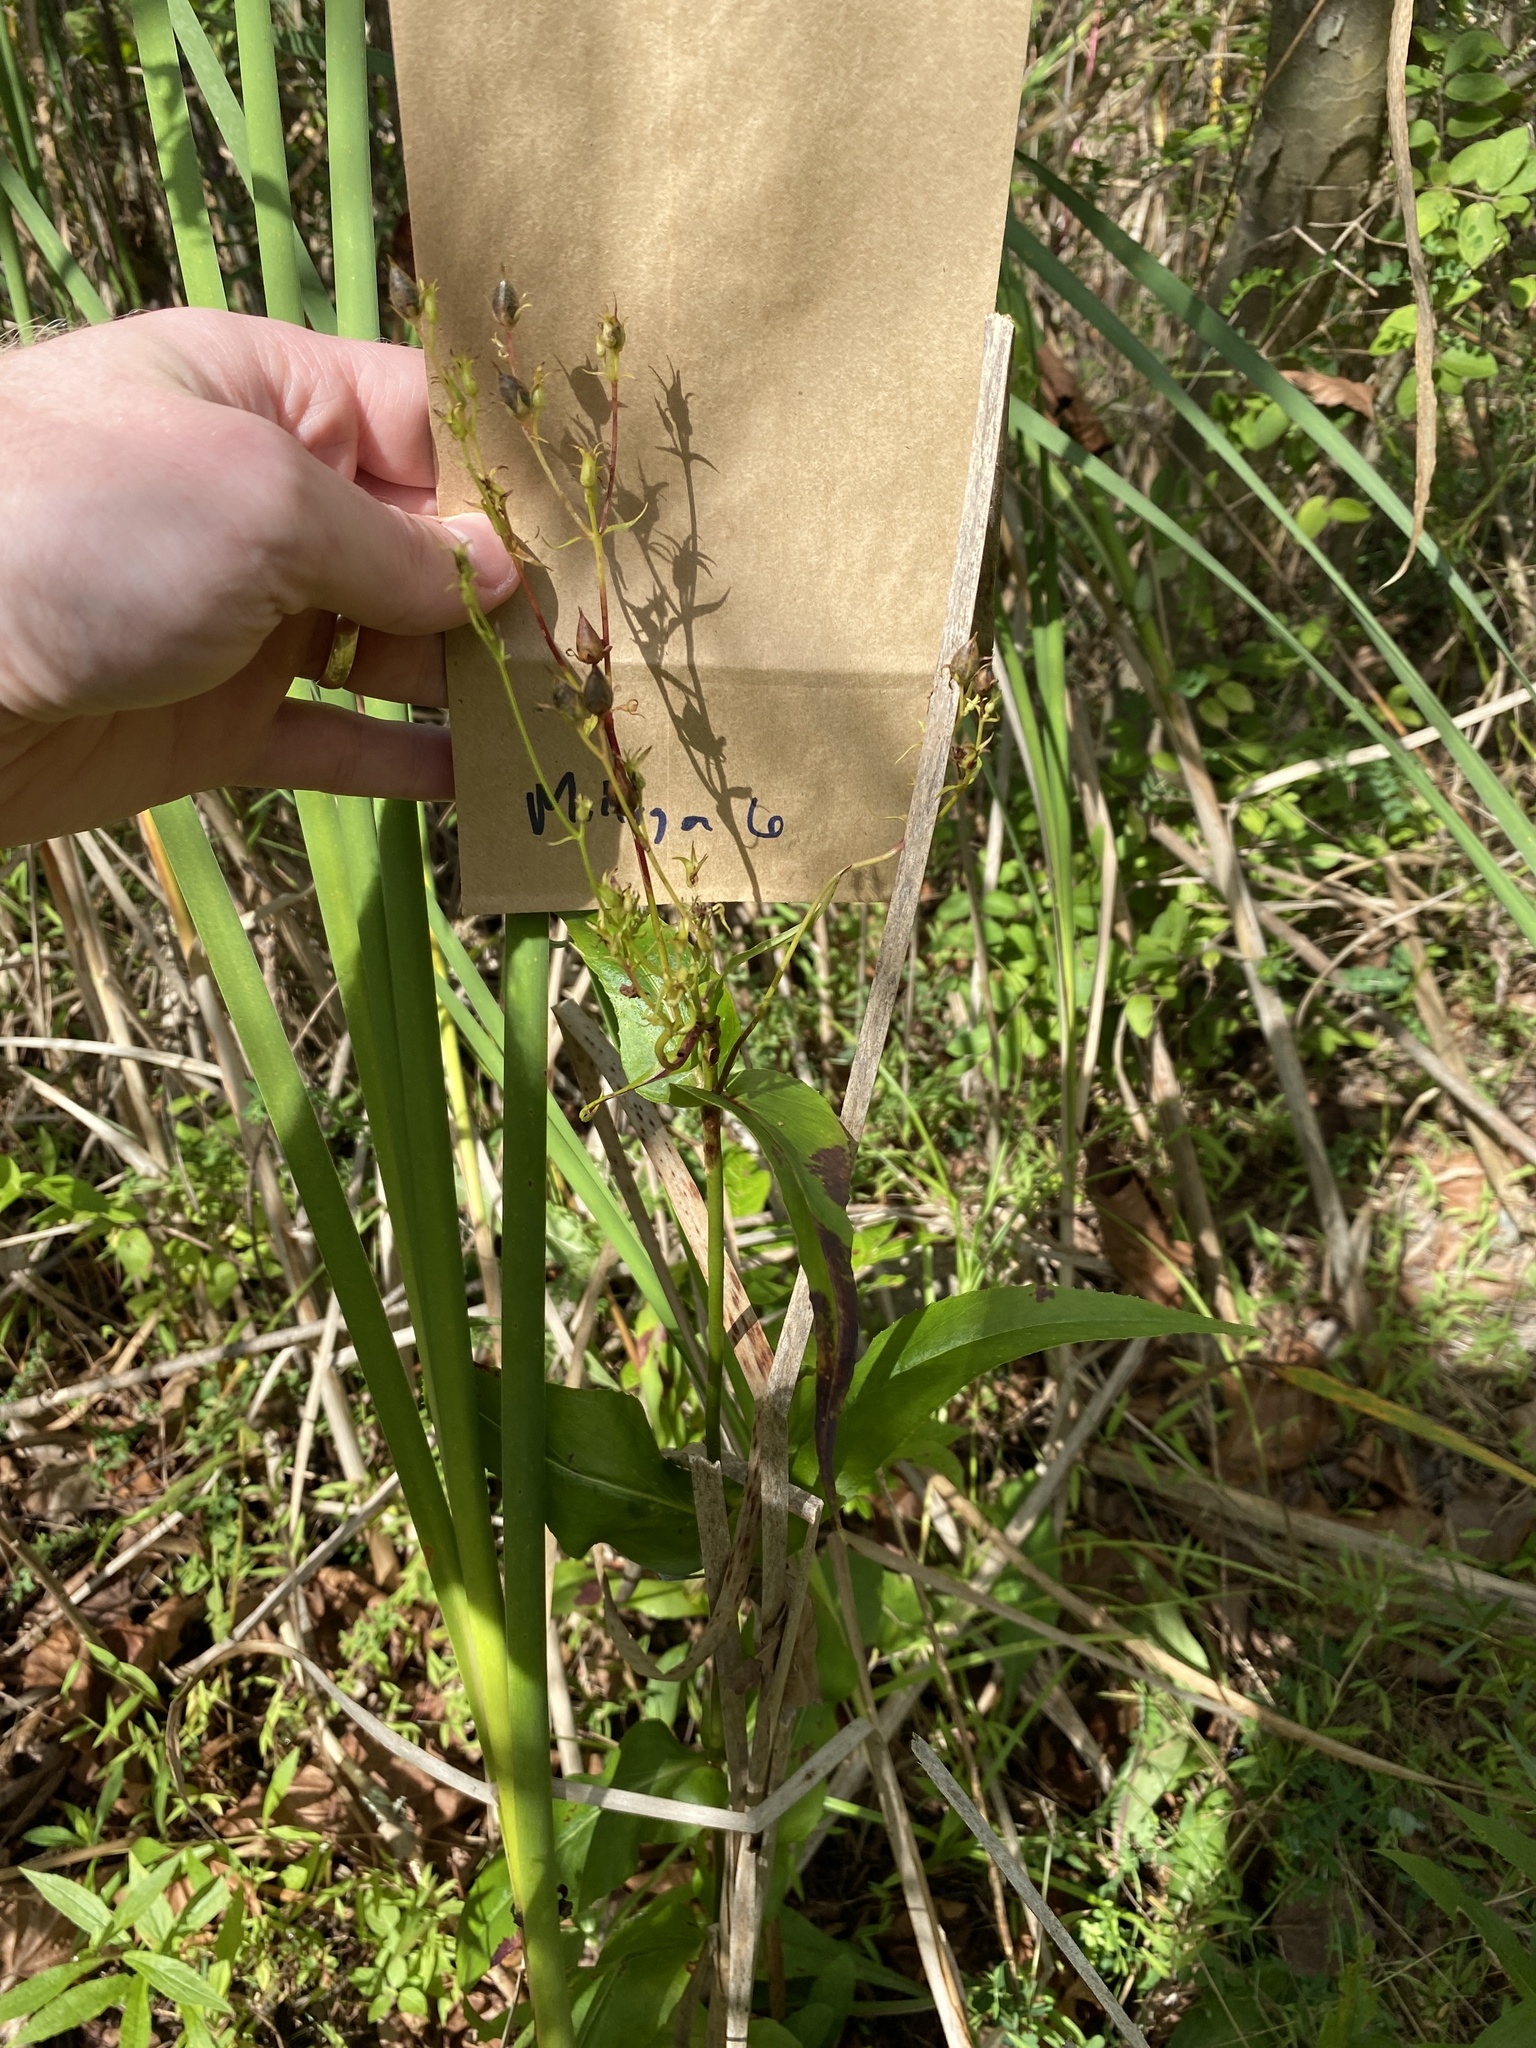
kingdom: Plantae
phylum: Tracheophyta
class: Magnoliopsida
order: Lamiales
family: Plantaginaceae
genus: Penstemon
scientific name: Penstemon digitalis
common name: Foxglove beardtongue
